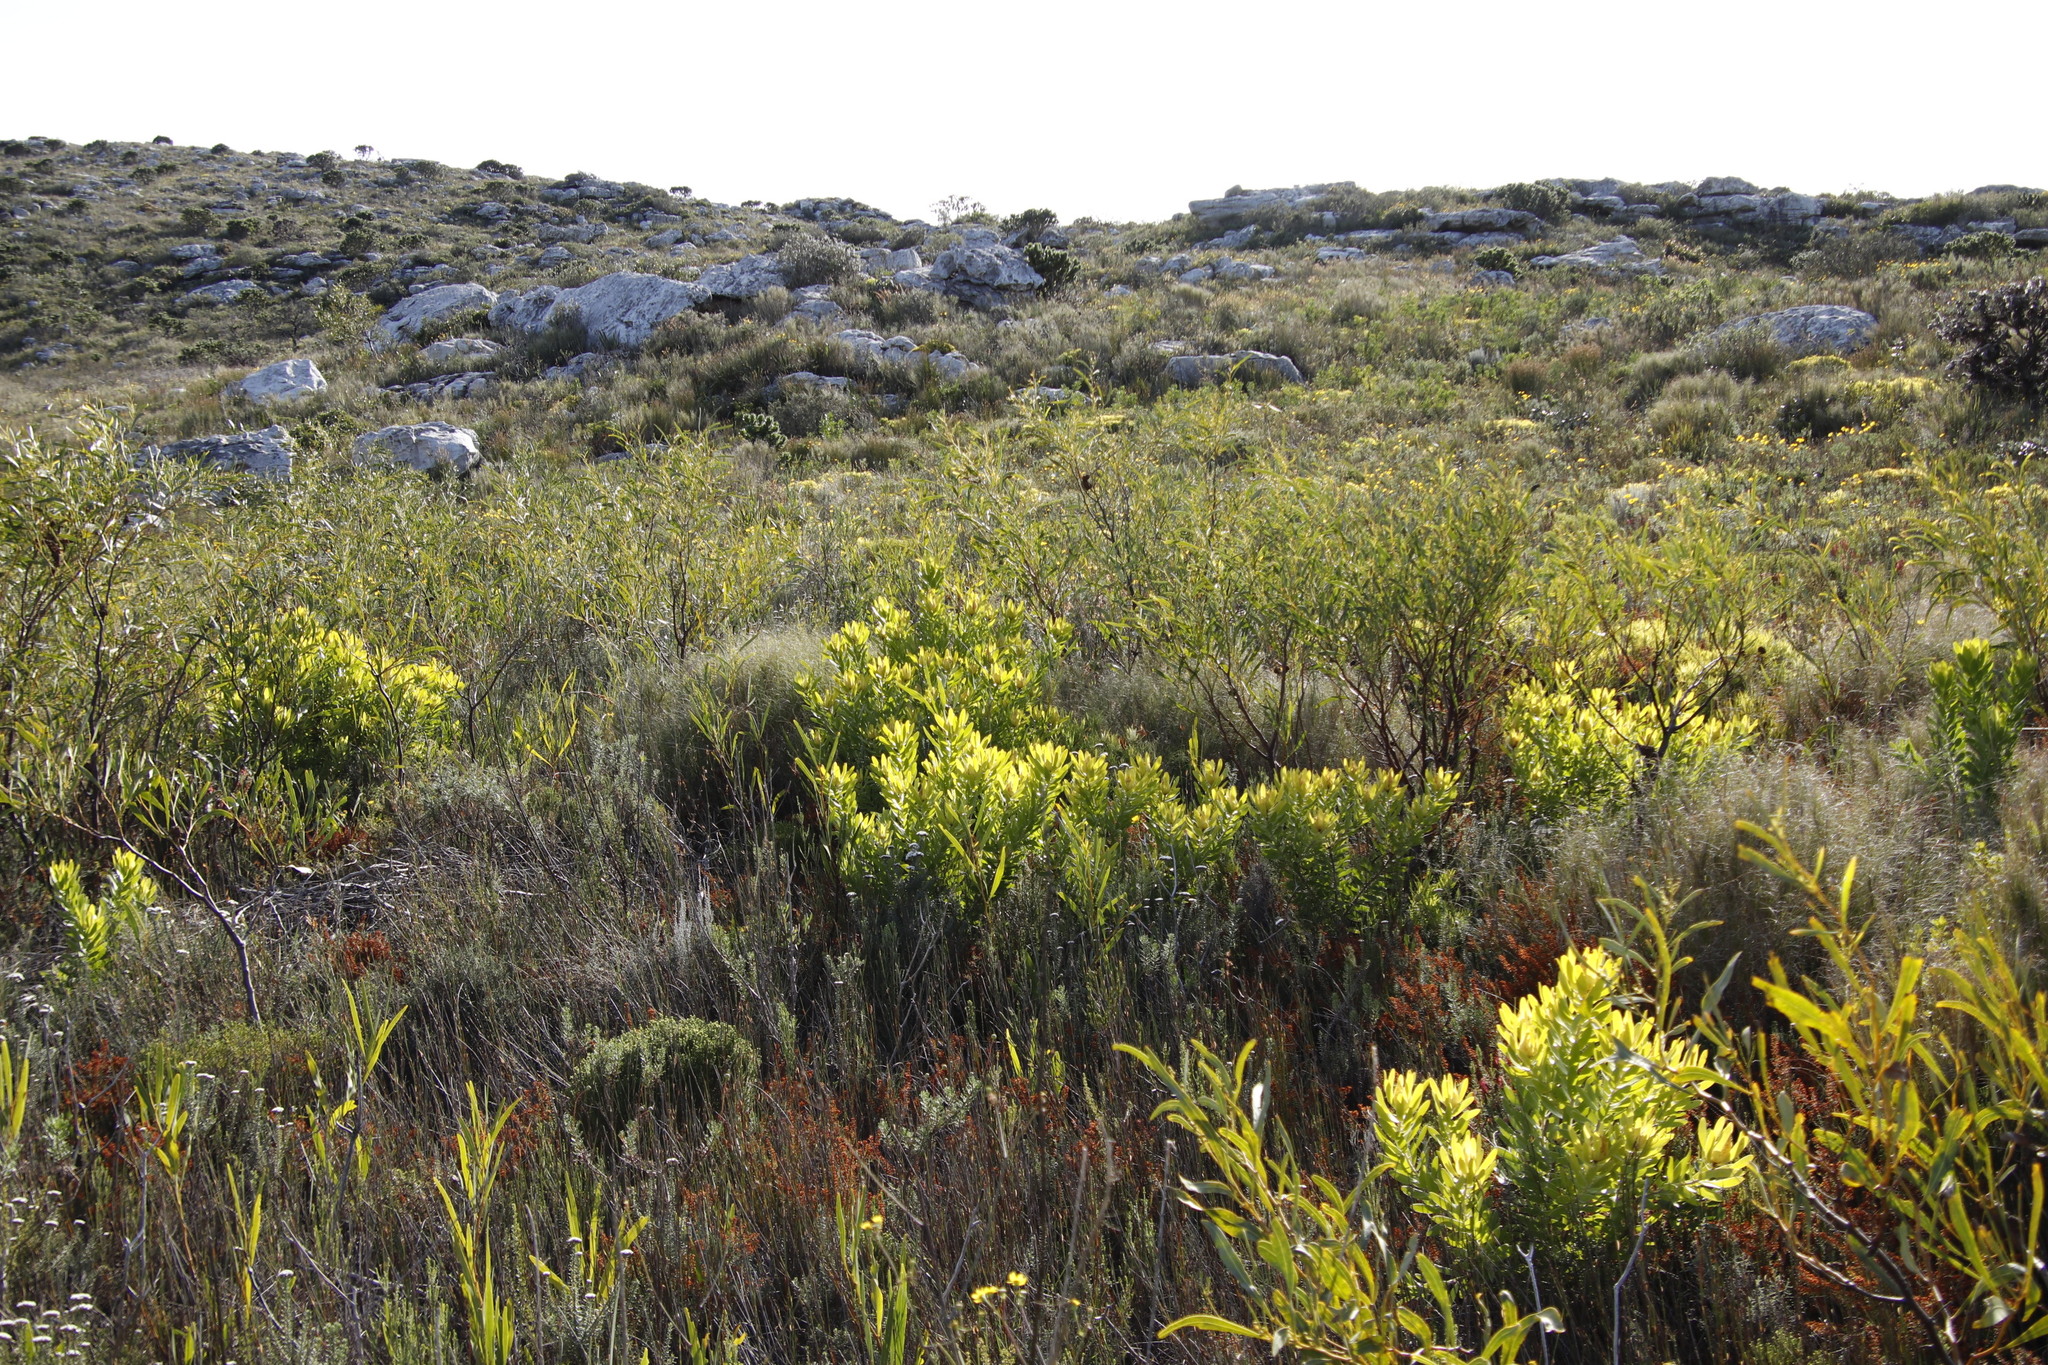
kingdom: Plantae
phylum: Tracheophyta
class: Magnoliopsida
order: Fabales
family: Fabaceae
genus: Acacia
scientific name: Acacia saligna
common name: Orange wattle
